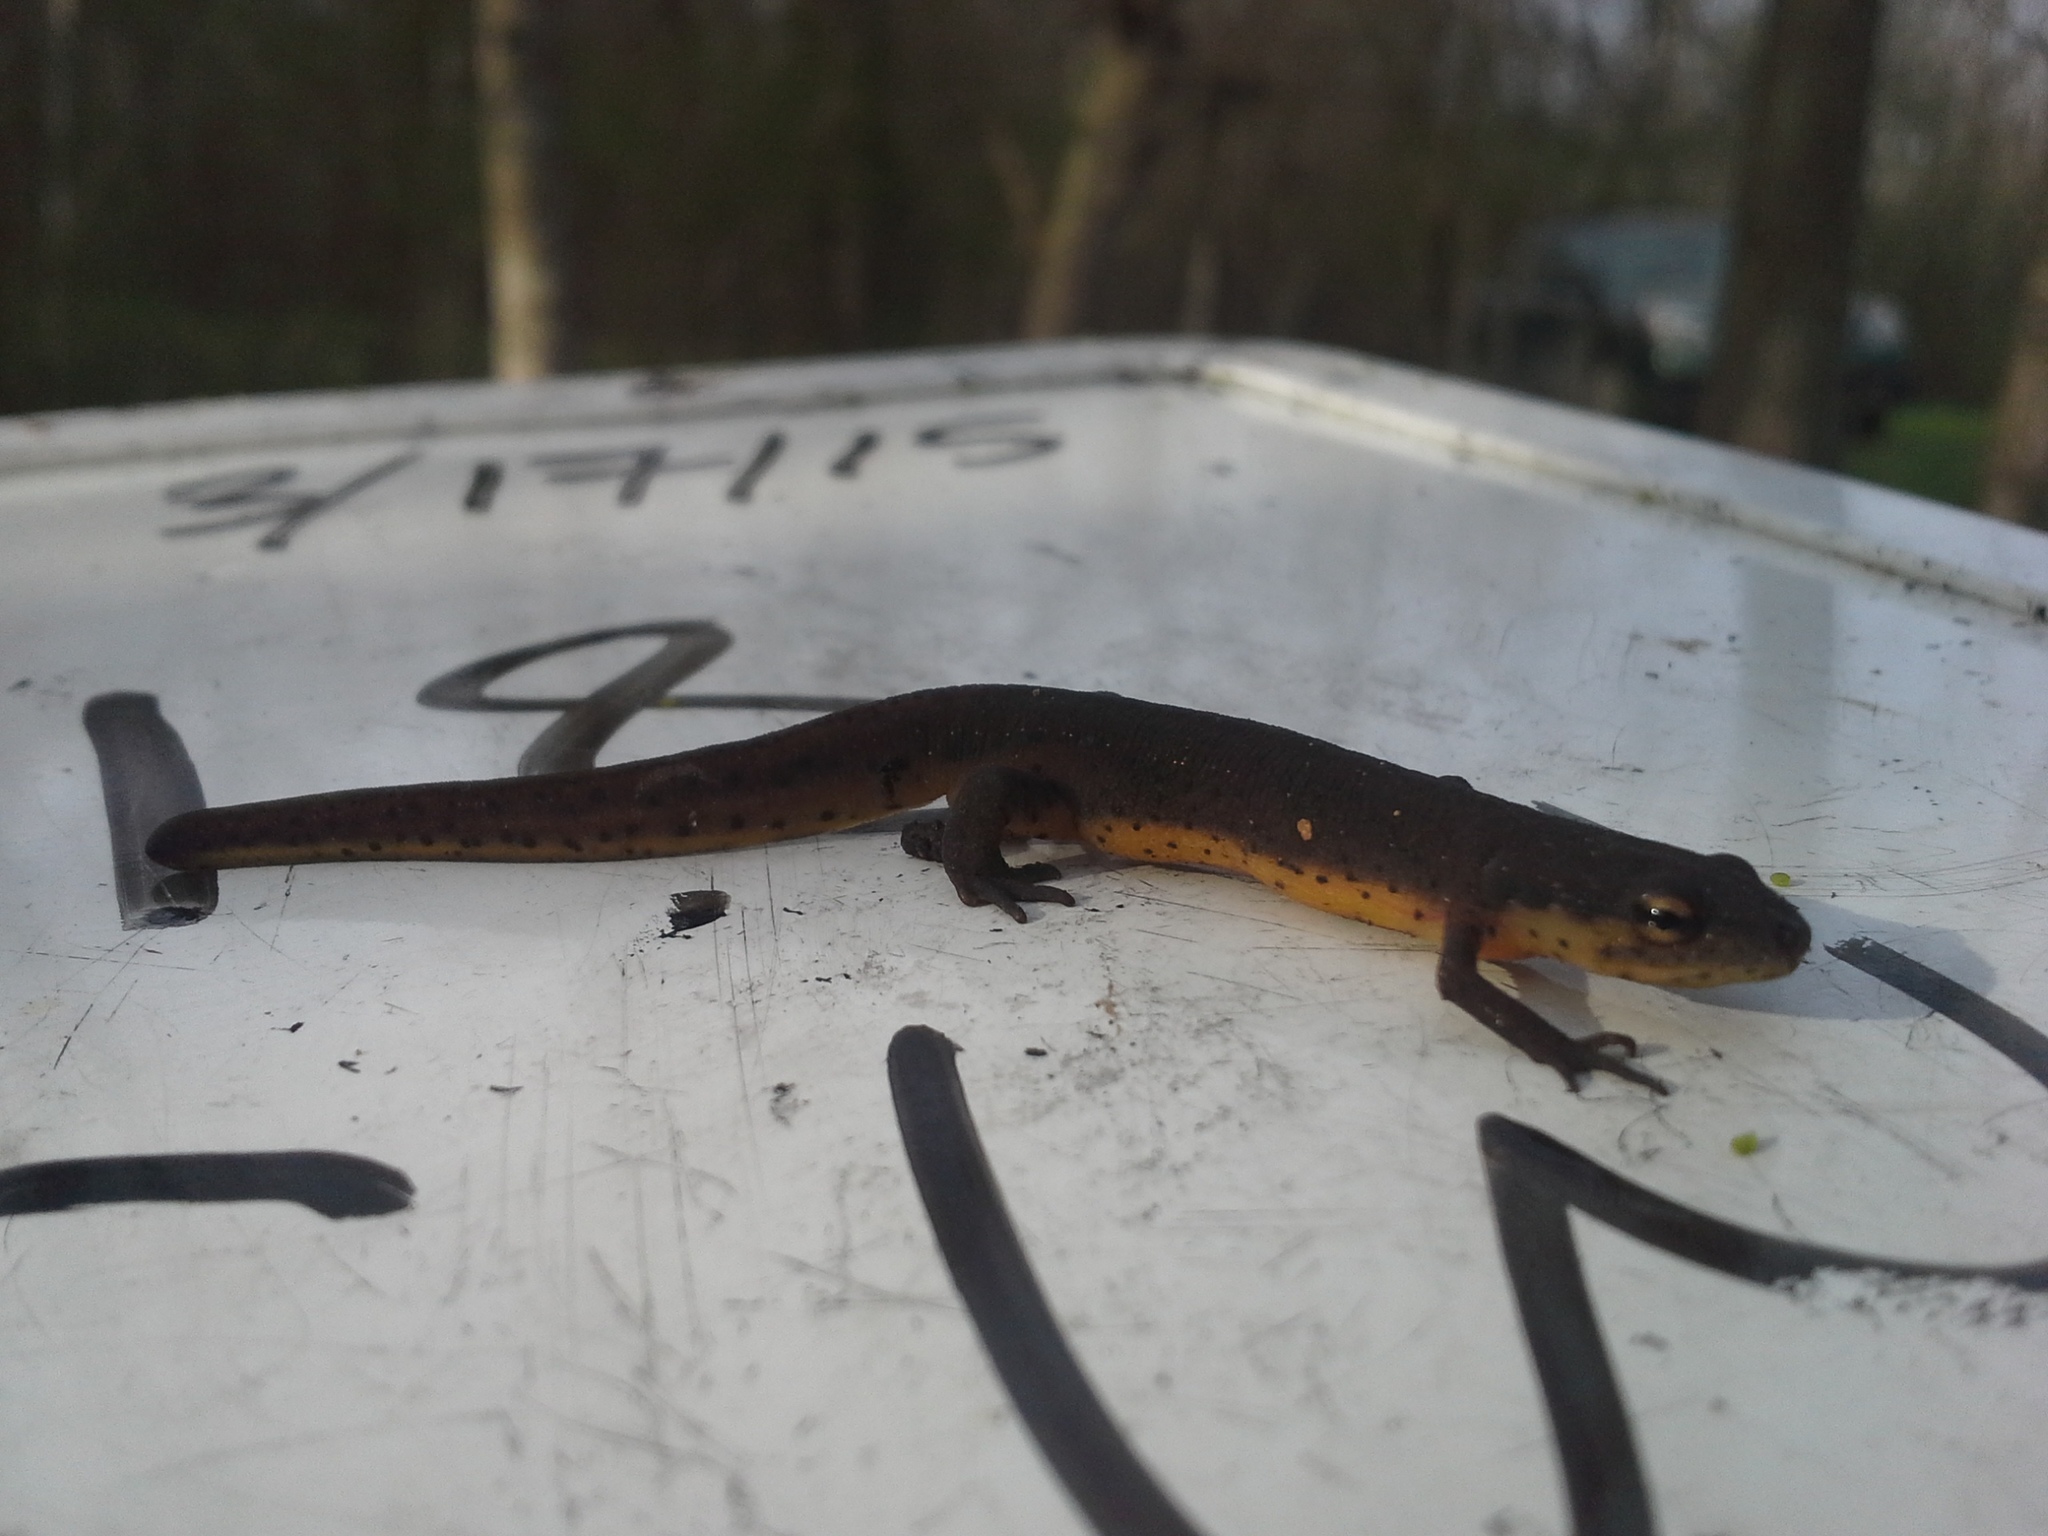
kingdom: Animalia
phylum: Chordata
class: Amphibia
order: Caudata
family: Salamandridae
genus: Notophthalmus
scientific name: Notophthalmus viridescens
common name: Eastern newt
